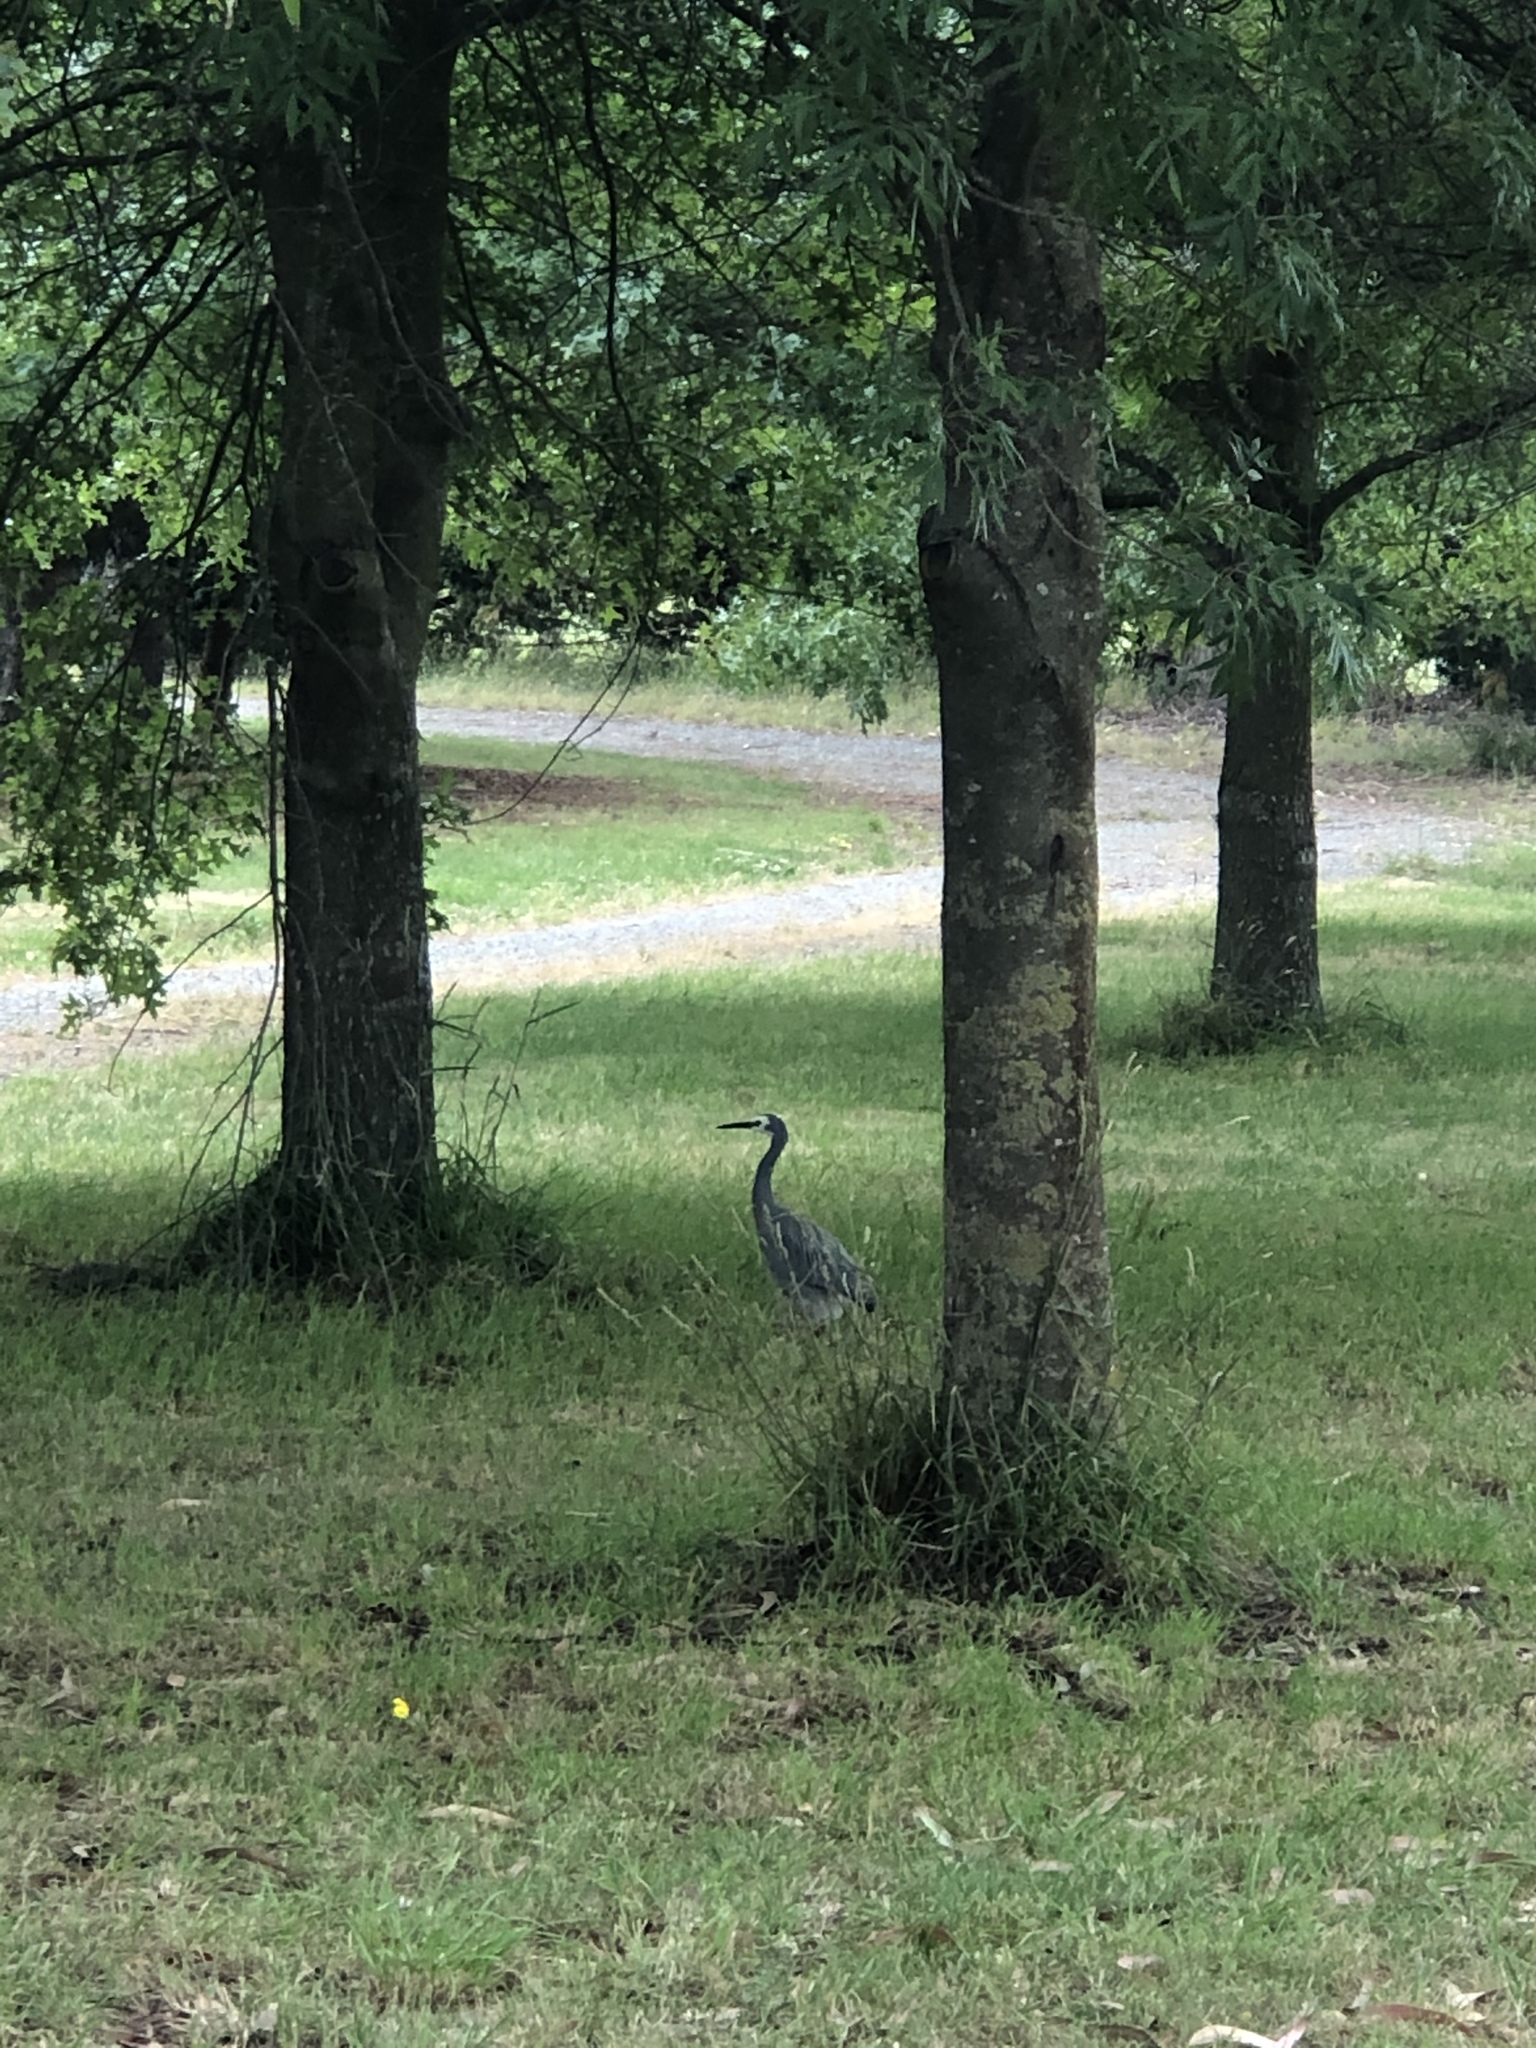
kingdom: Animalia
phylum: Chordata
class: Aves
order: Pelecaniformes
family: Ardeidae
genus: Egretta
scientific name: Egretta novaehollandiae
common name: White-faced heron
